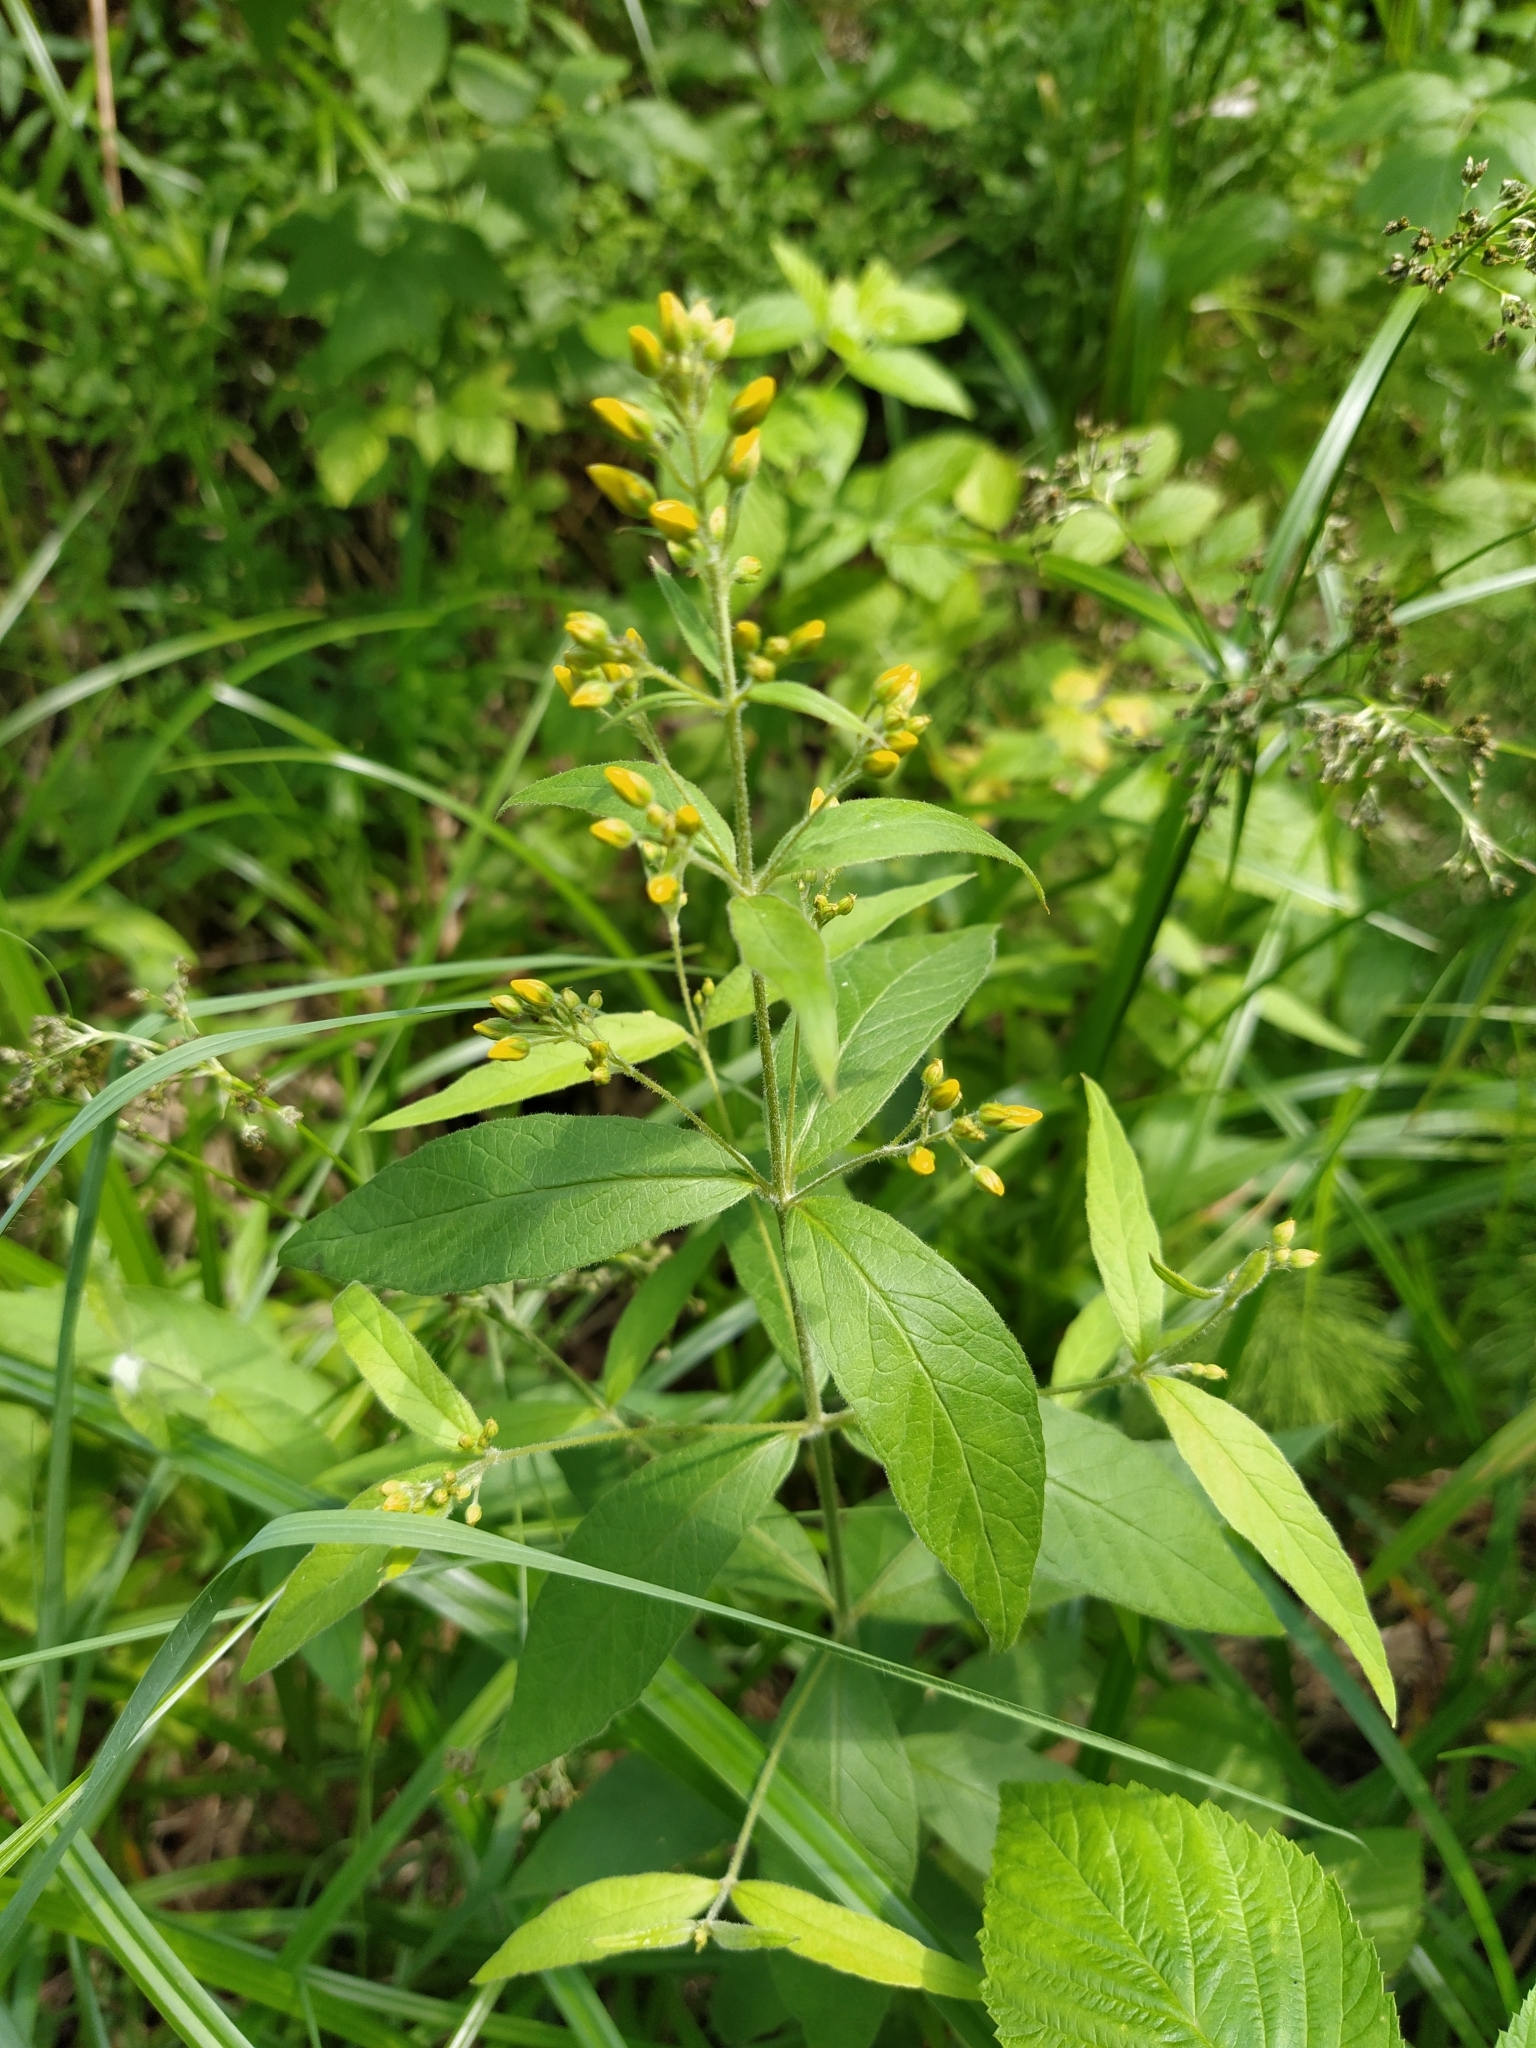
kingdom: Plantae
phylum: Tracheophyta
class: Magnoliopsida
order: Ericales
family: Primulaceae
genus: Lysimachia
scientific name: Lysimachia vulgaris
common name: Yellow loosestrife
